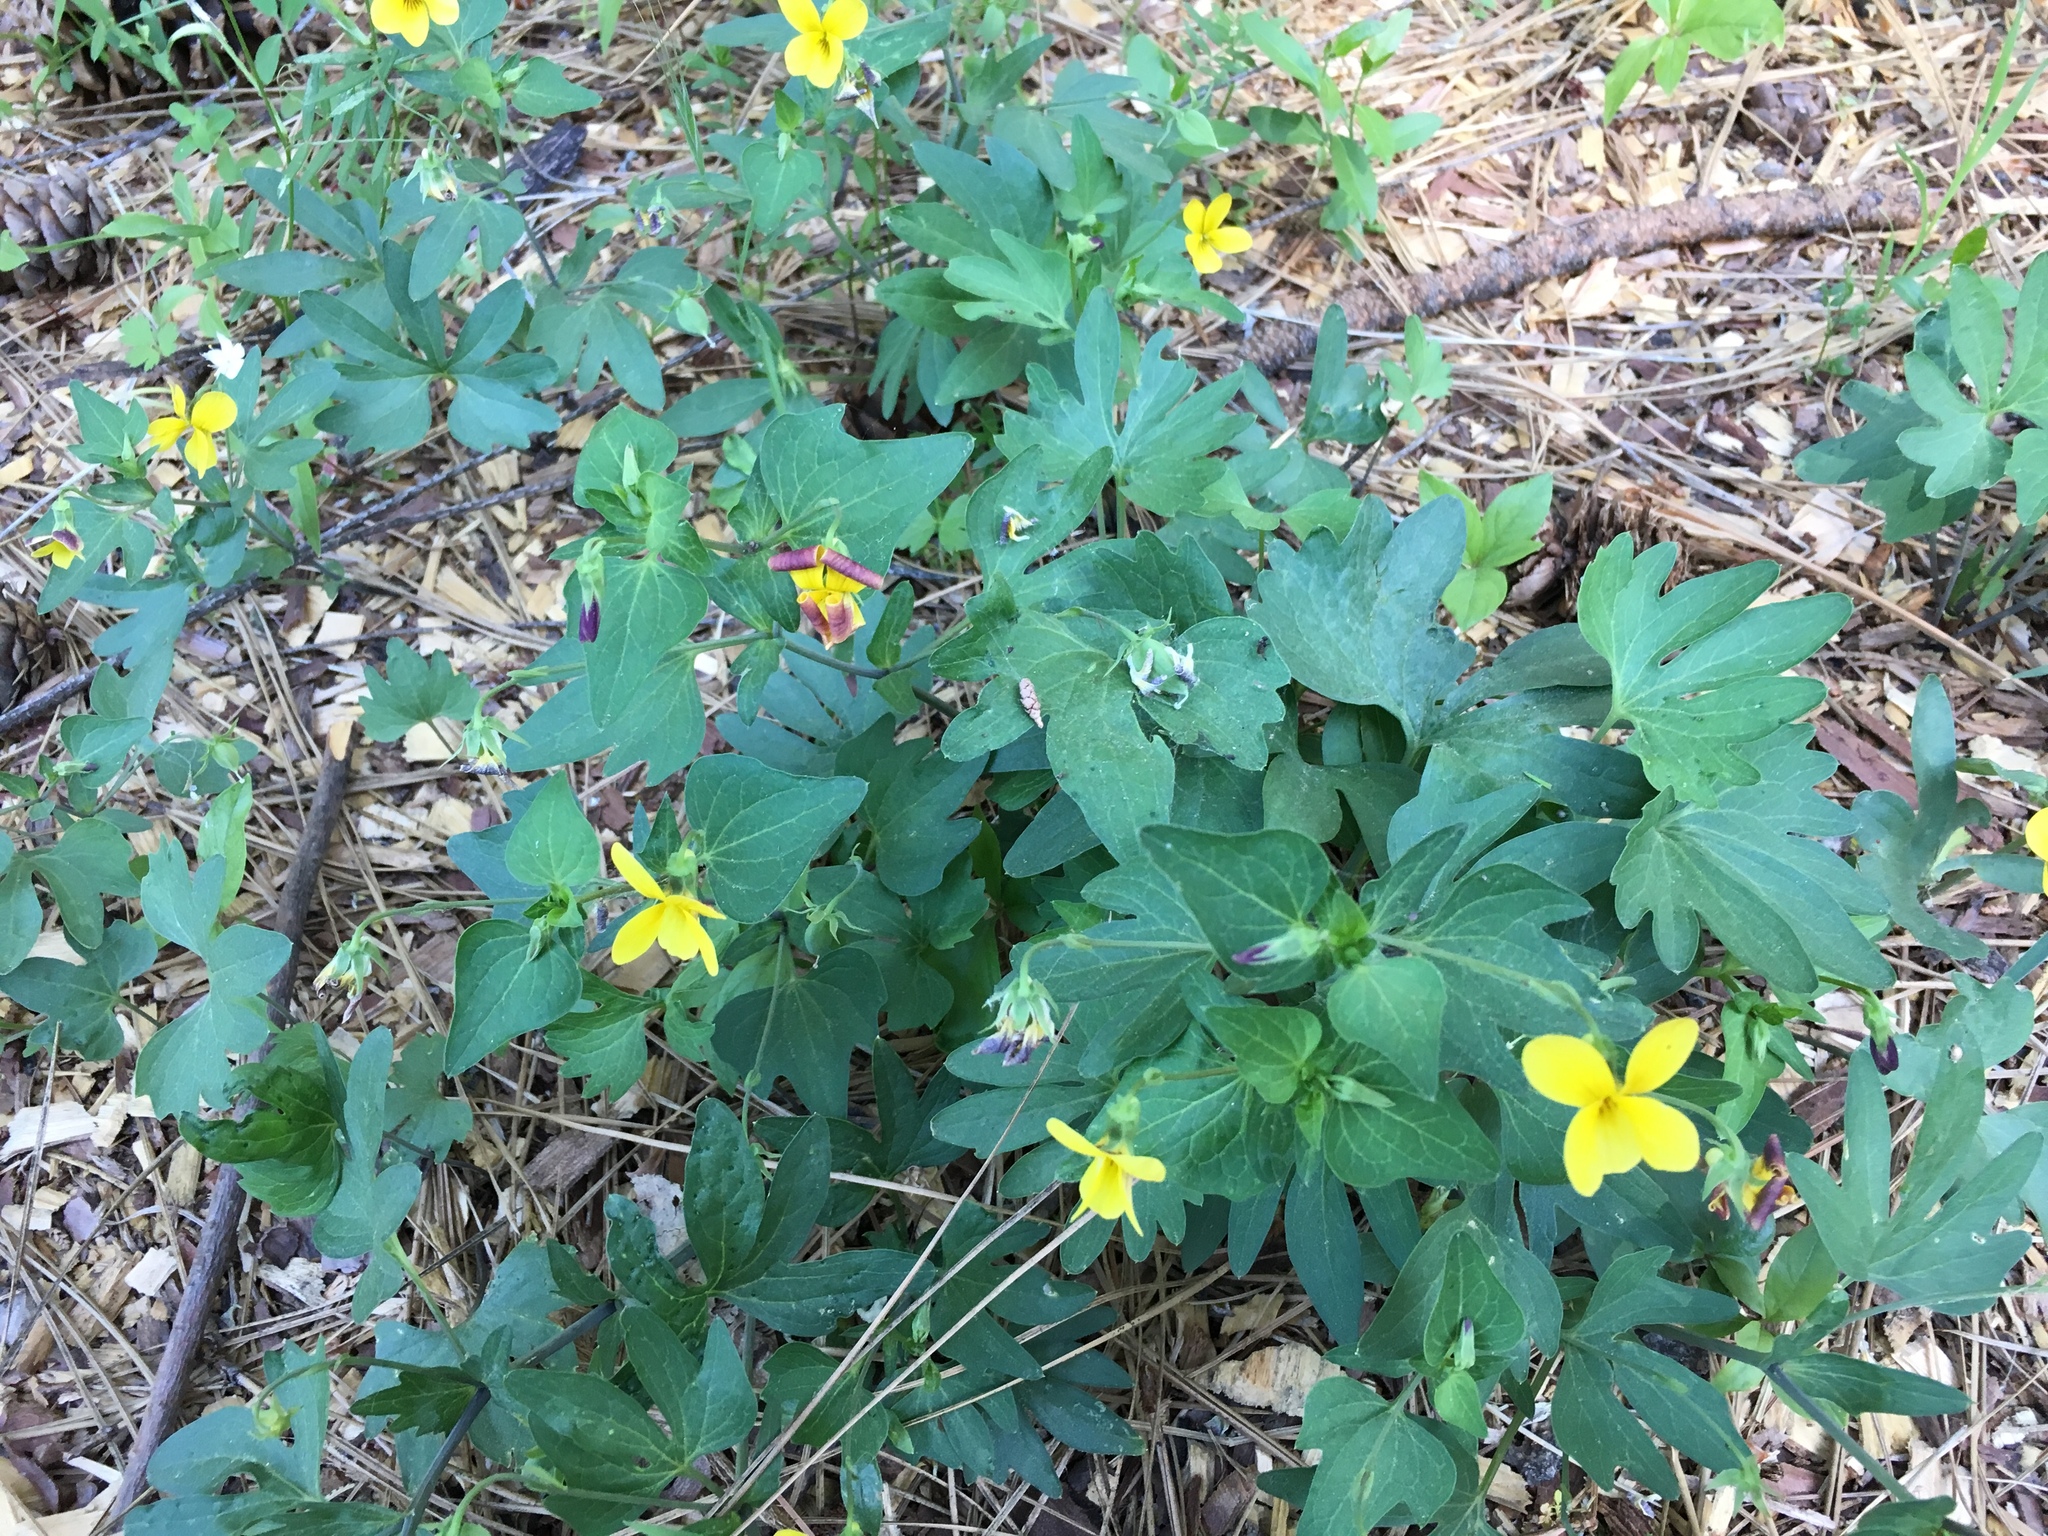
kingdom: Plantae
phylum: Tracheophyta
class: Magnoliopsida
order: Malpighiales
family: Violaceae
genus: Viola
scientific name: Viola lobata
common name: Pine violet
